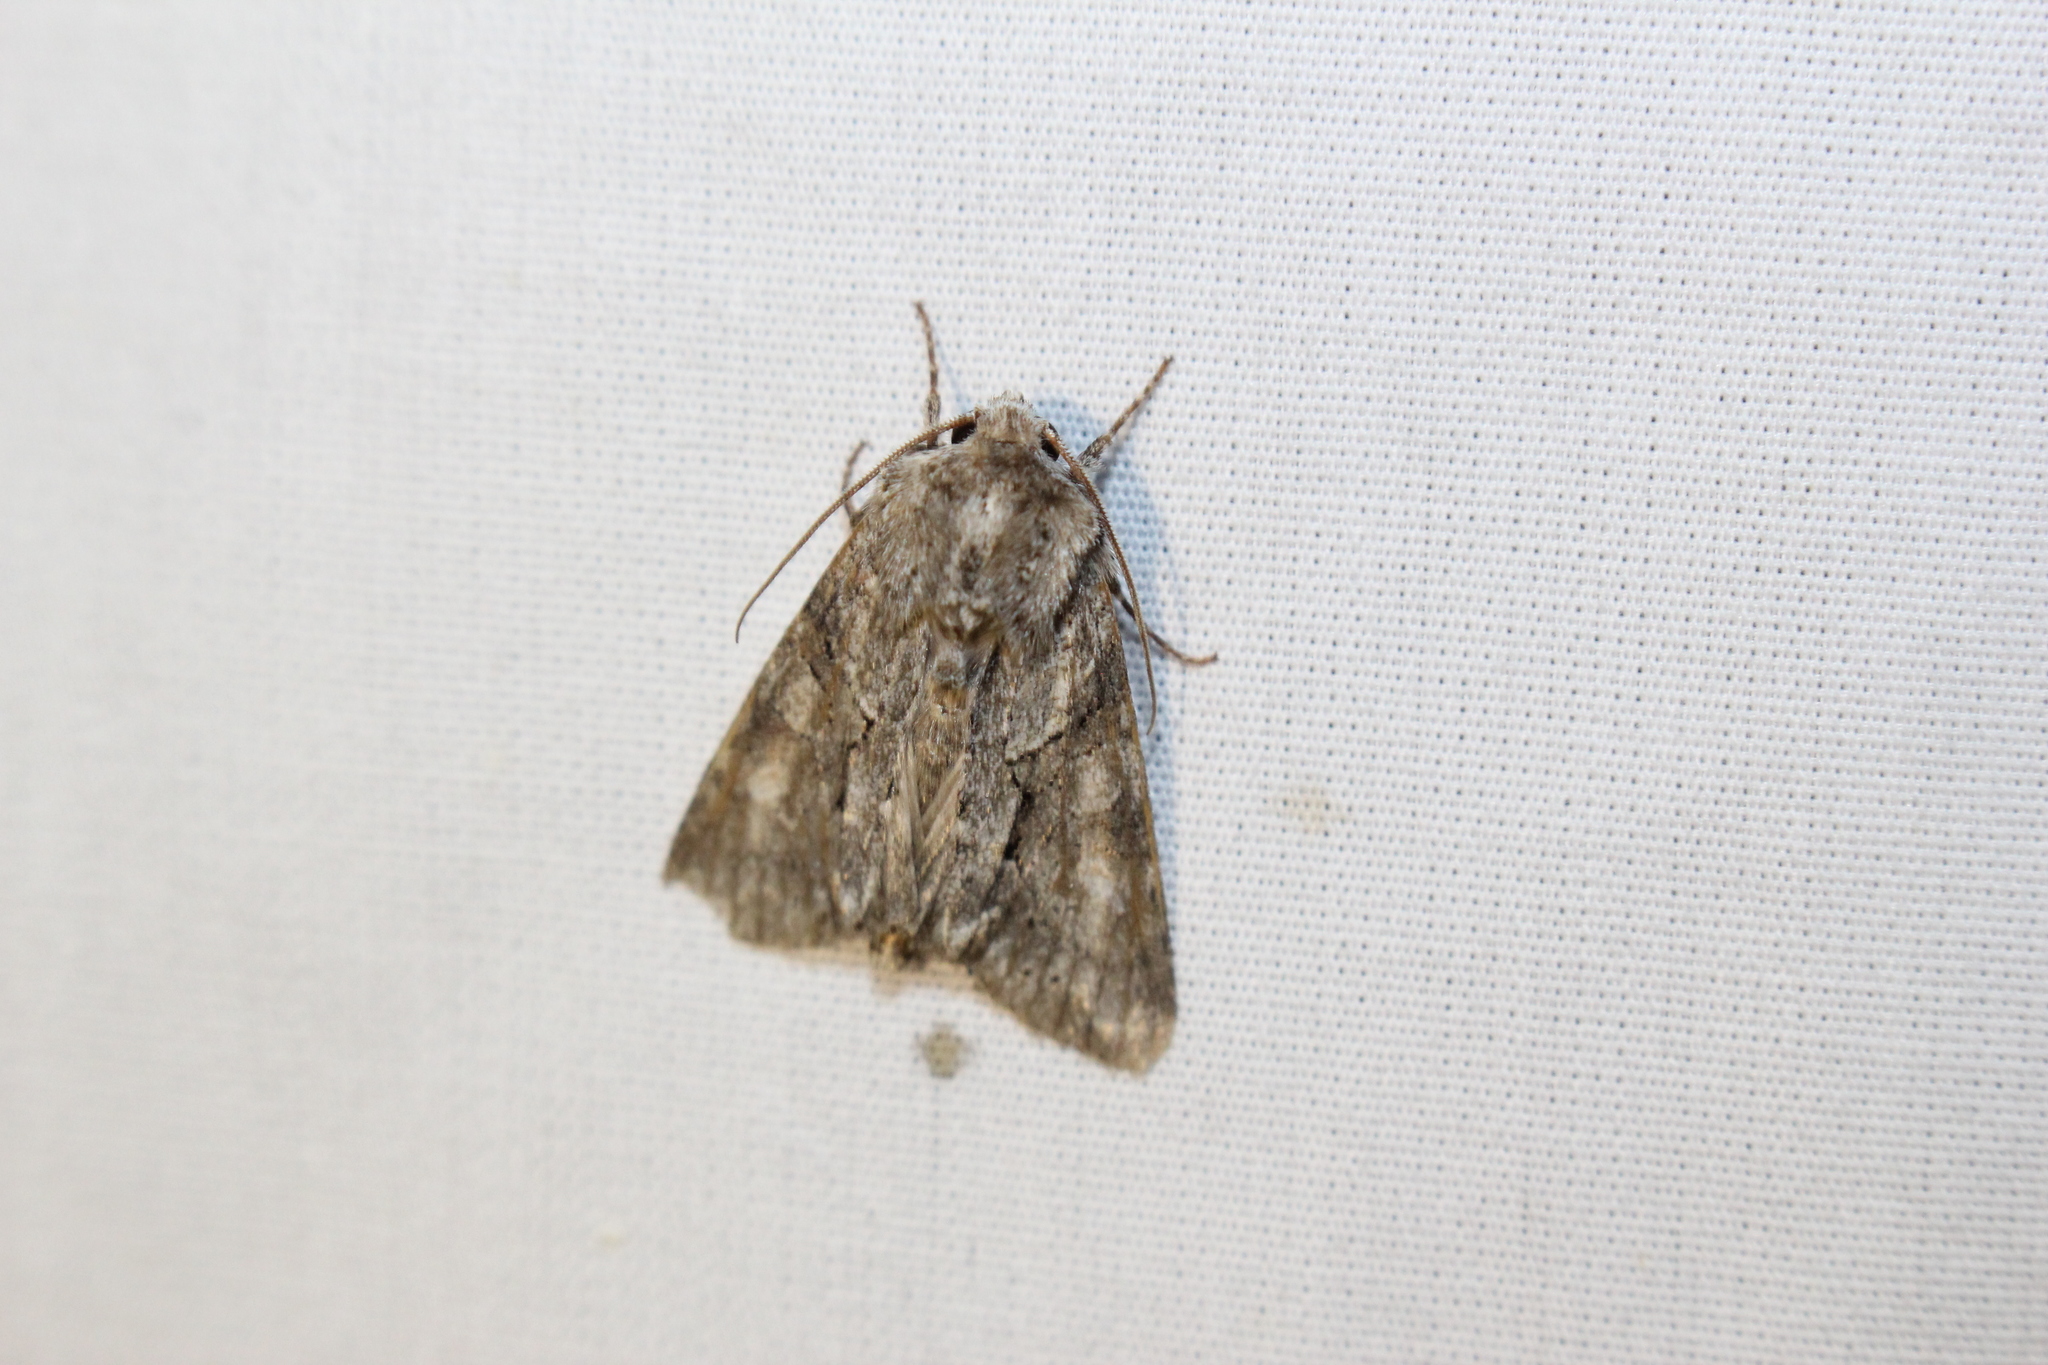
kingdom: Animalia
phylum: Arthropoda
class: Insecta
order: Lepidoptera
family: Noctuidae
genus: Achatia
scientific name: Achatia distincta
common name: Distinct quaker
